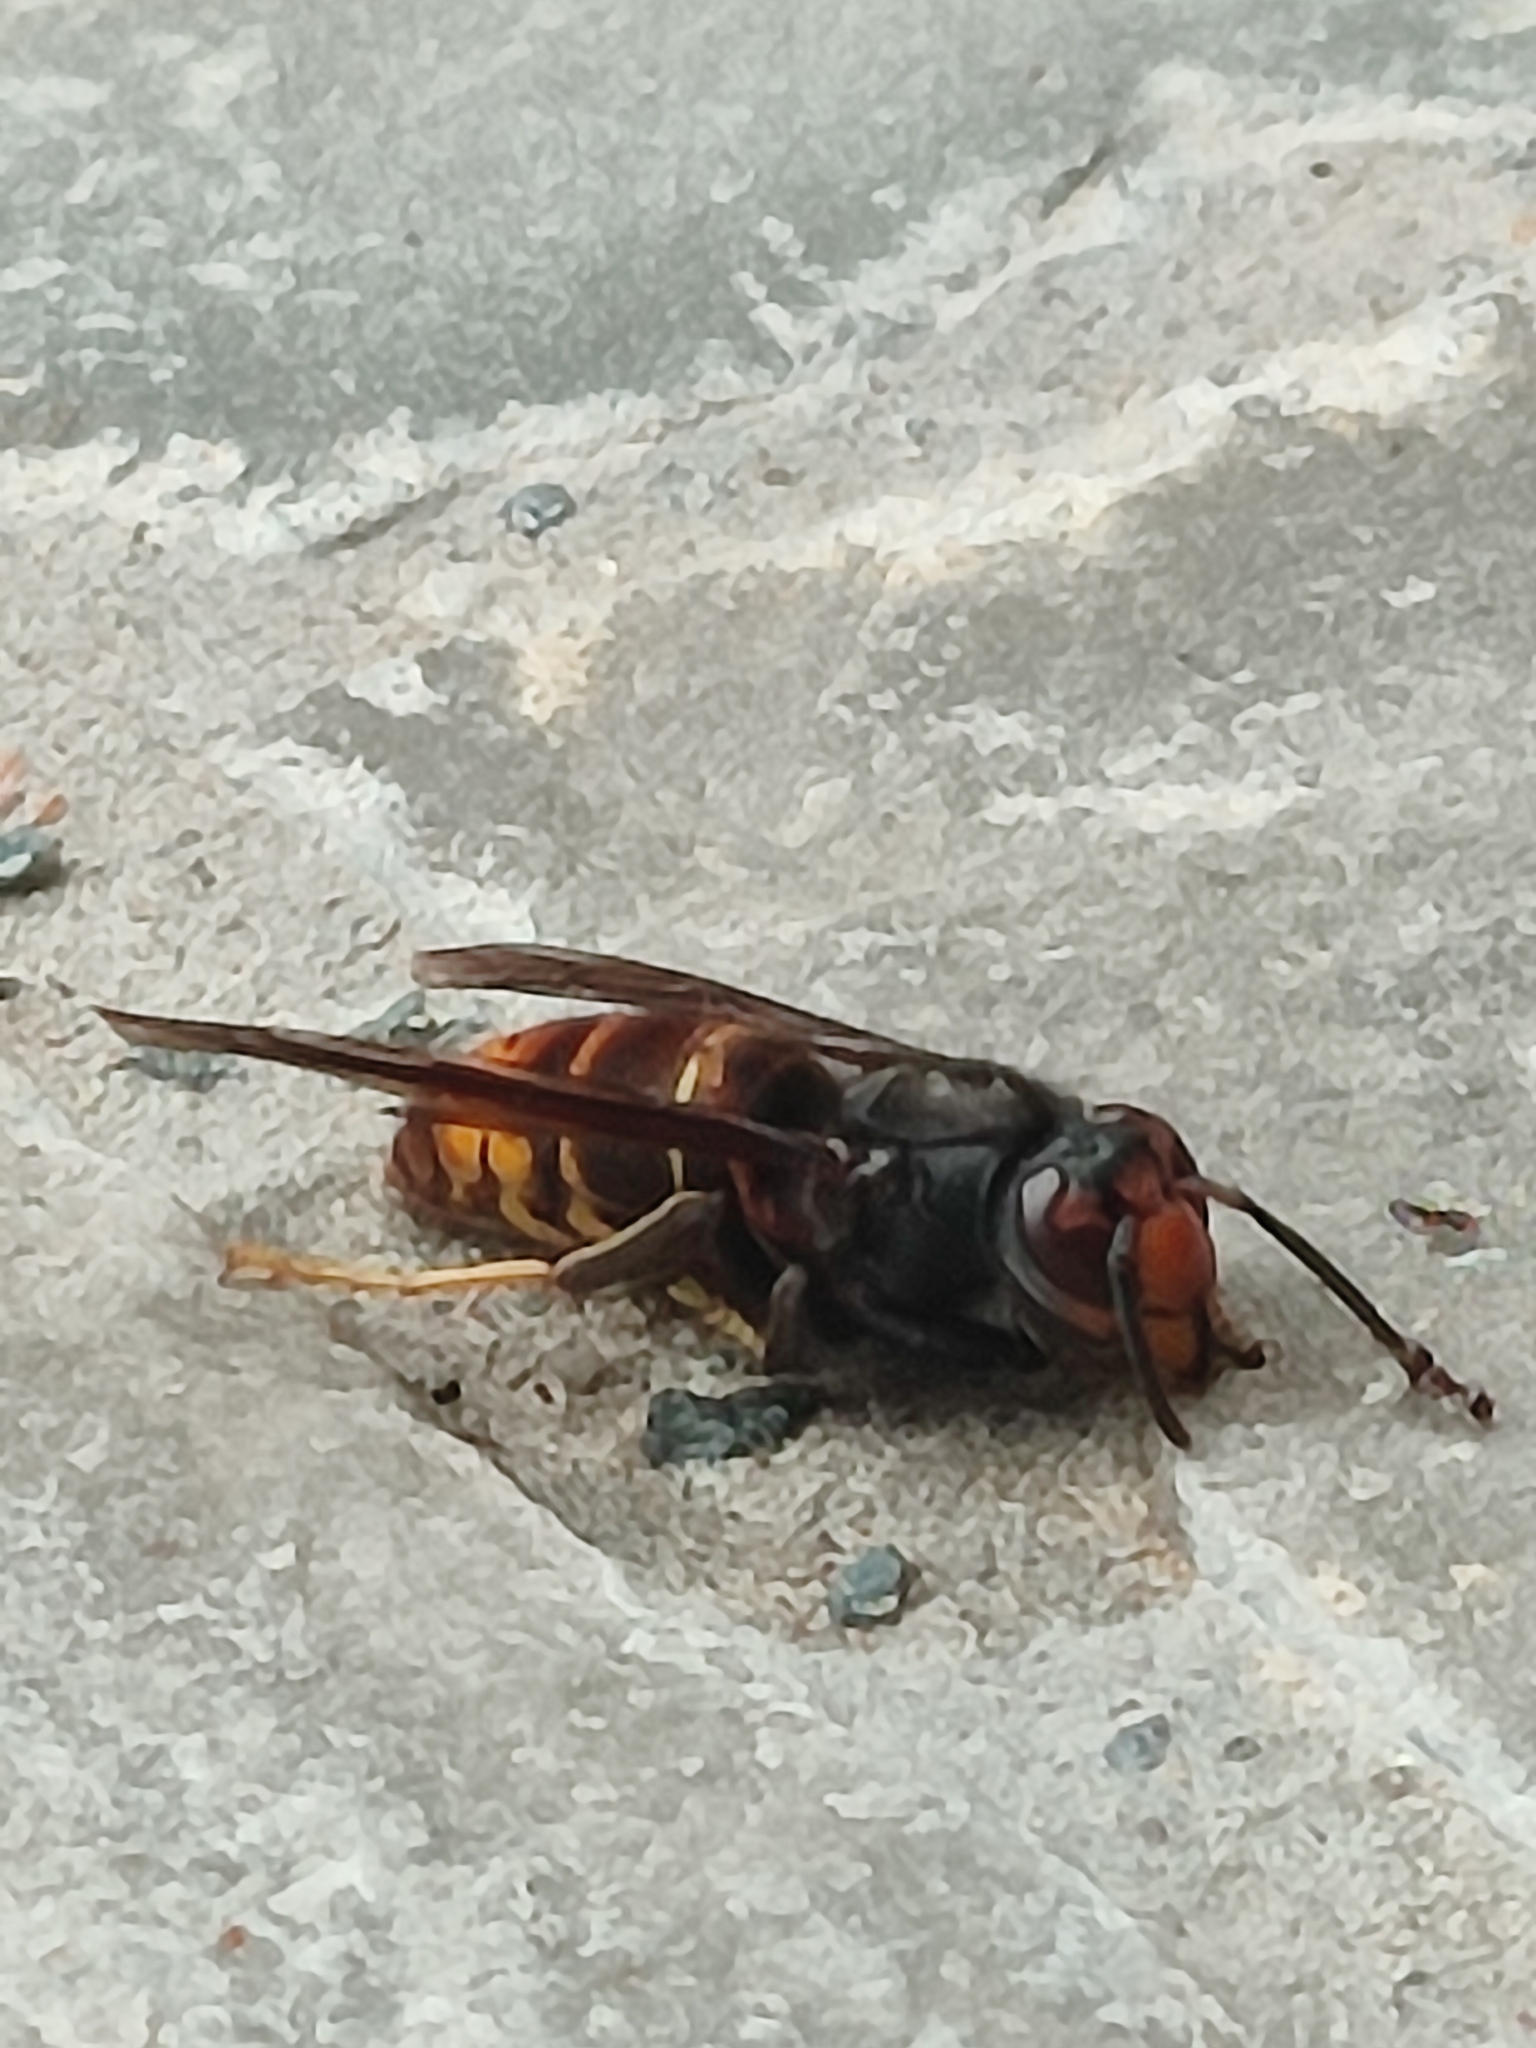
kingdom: Animalia
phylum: Arthropoda
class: Insecta
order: Hymenoptera
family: Vespidae
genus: Vespa
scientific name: Vespa velutina
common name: Asian hornet
